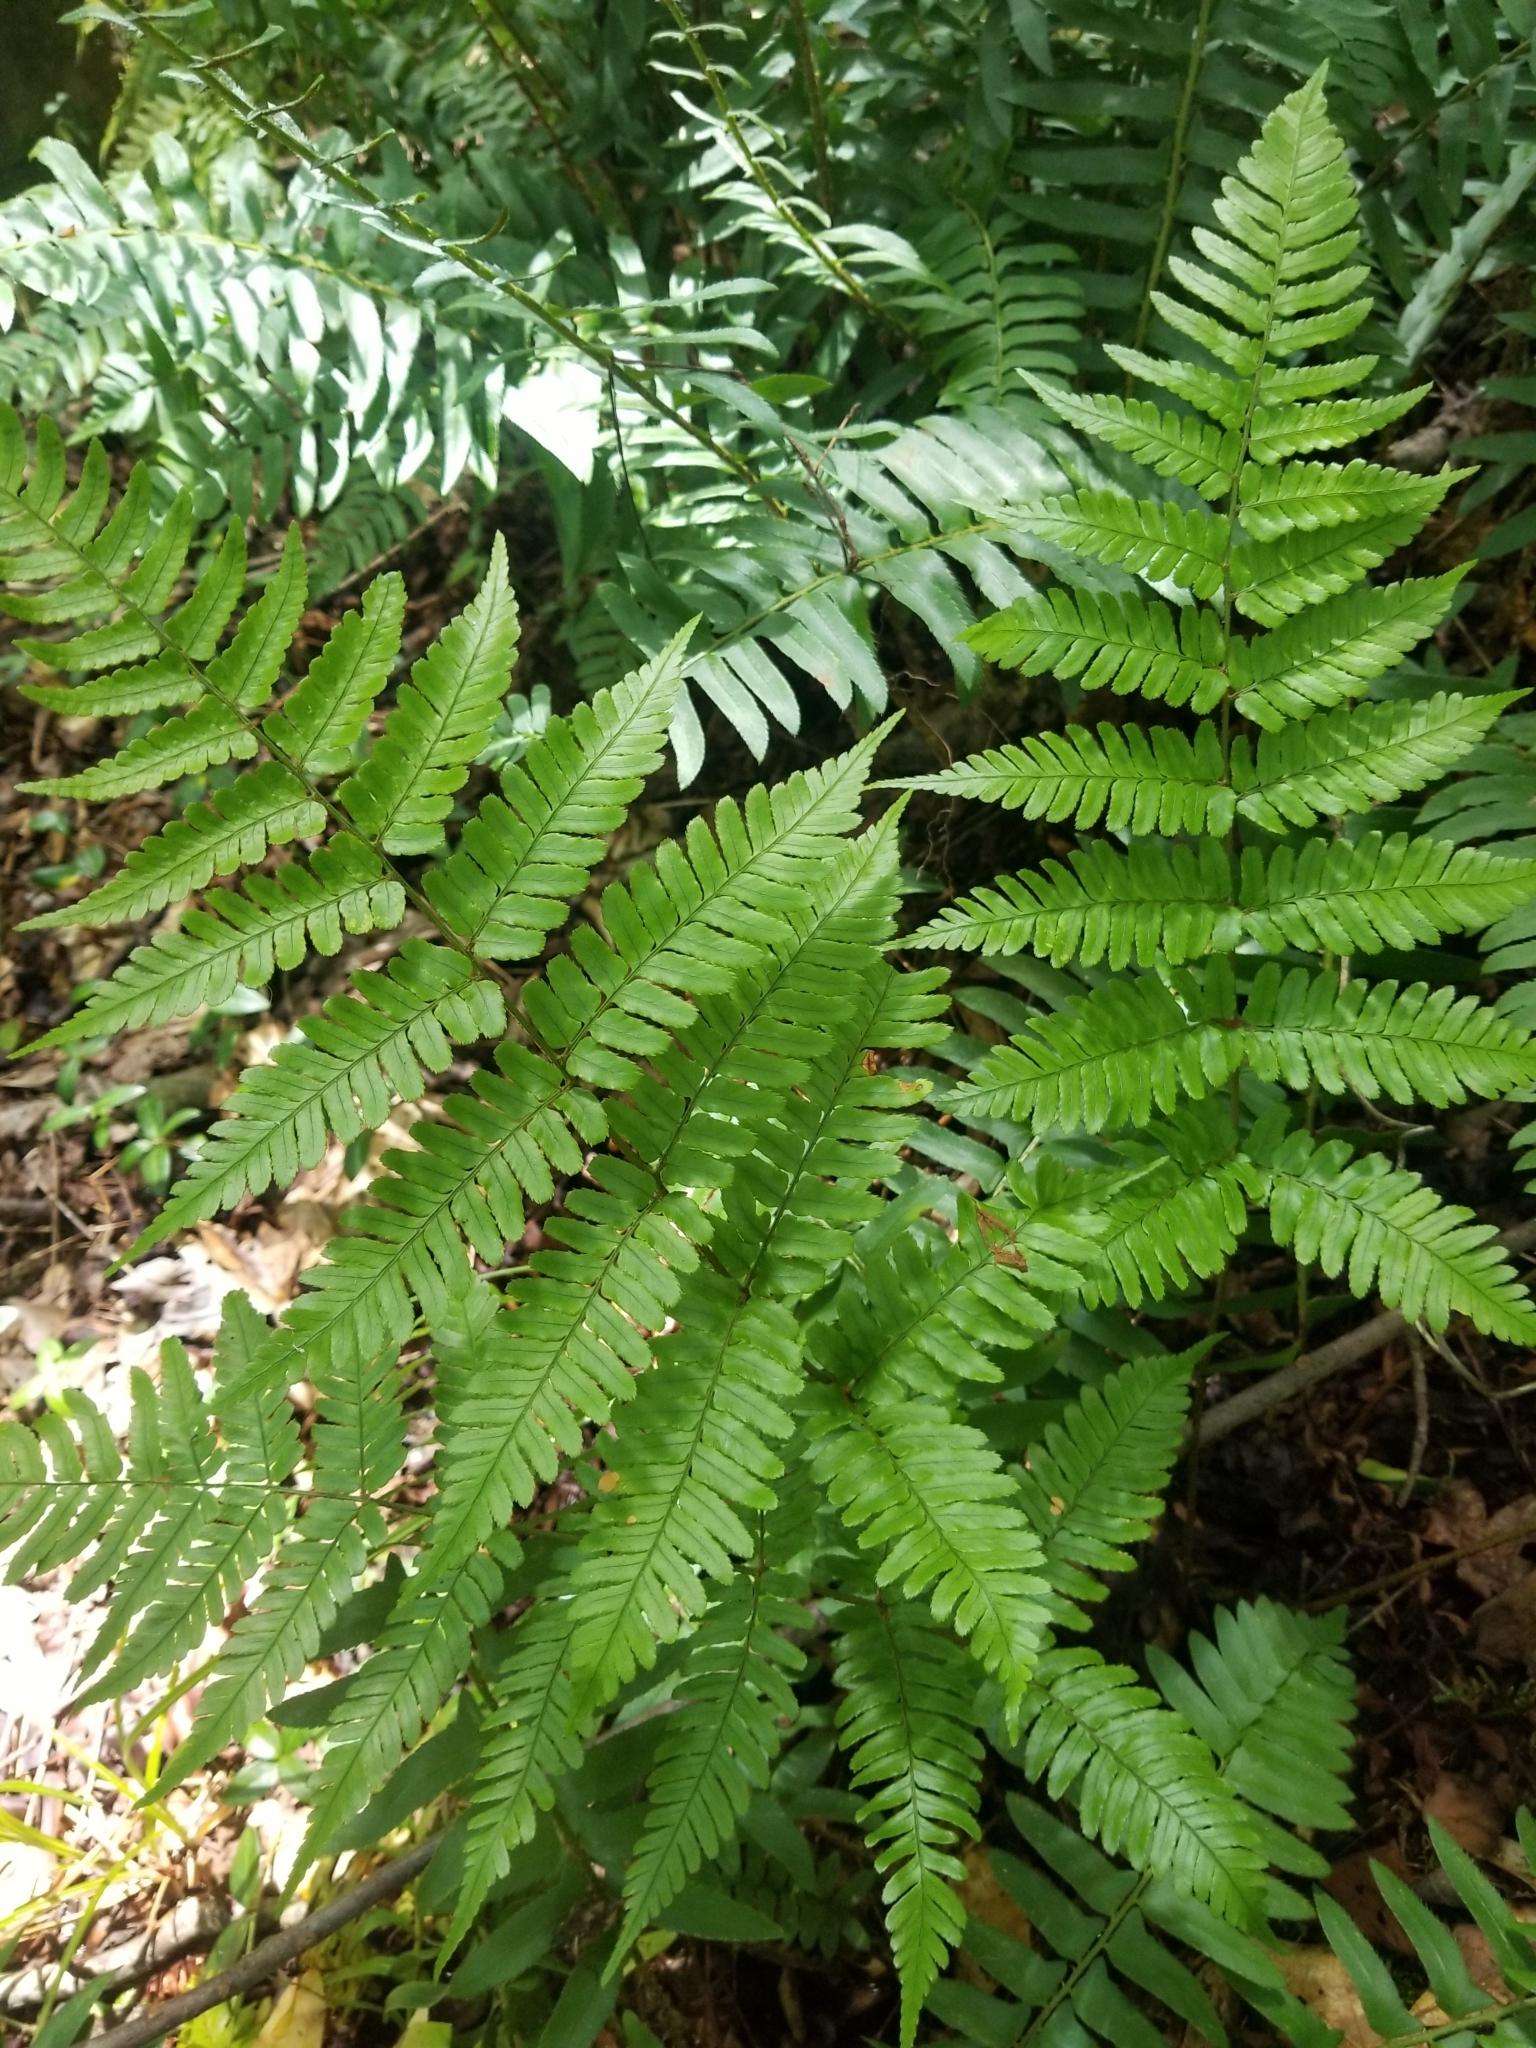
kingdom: Plantae
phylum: Tracheophyta
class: Polypodiopsida
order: Polypodiales
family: Dryopteridaceae
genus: Dryopteris
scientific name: Dryopteris erythrosora
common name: Autumn fern
